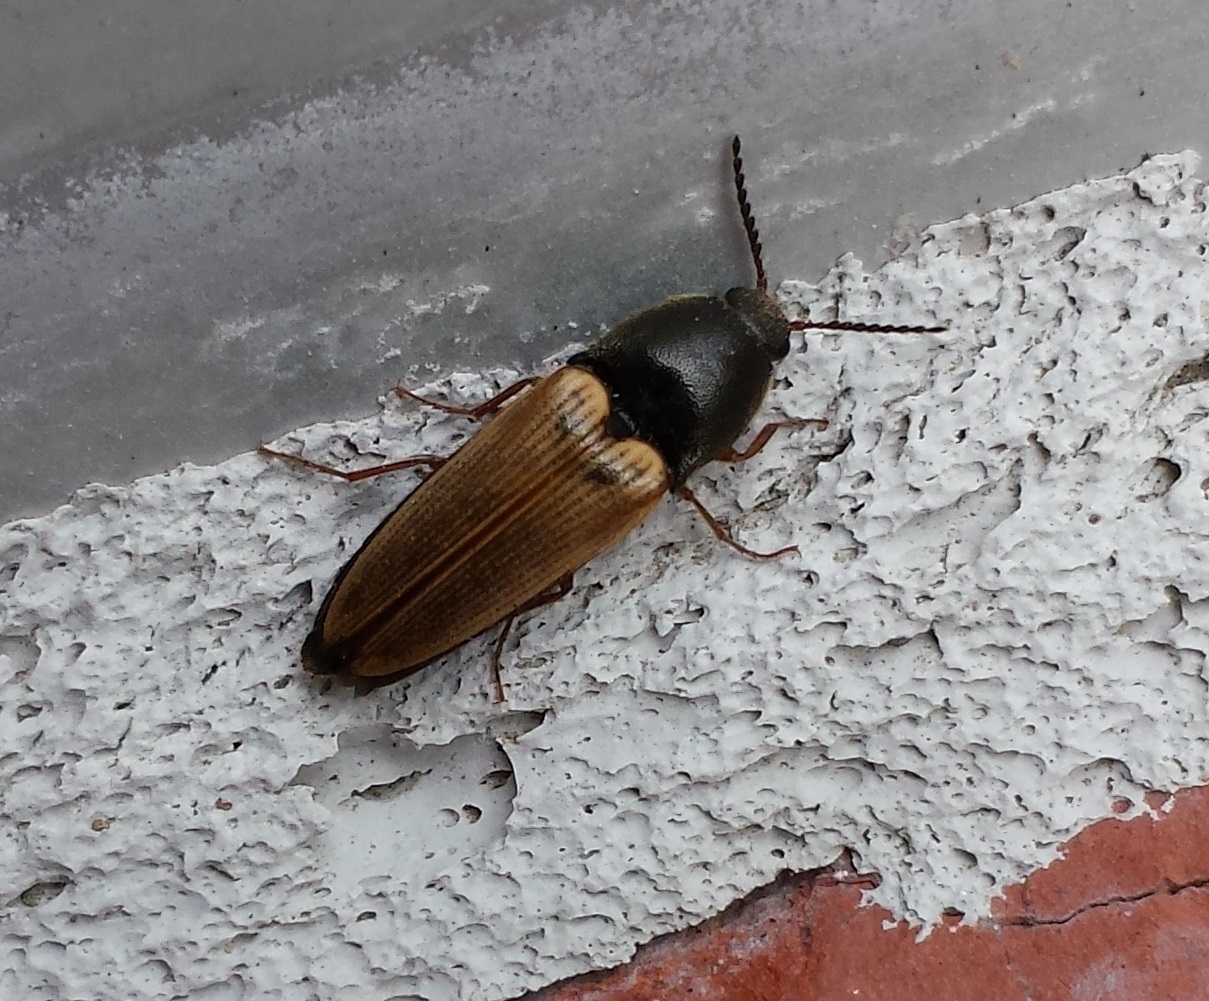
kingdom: Animalia
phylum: Arthropoda
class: Insecta
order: Coleoptera
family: Elateridae
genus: Ampedus
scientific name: Ampedus nigricollis
